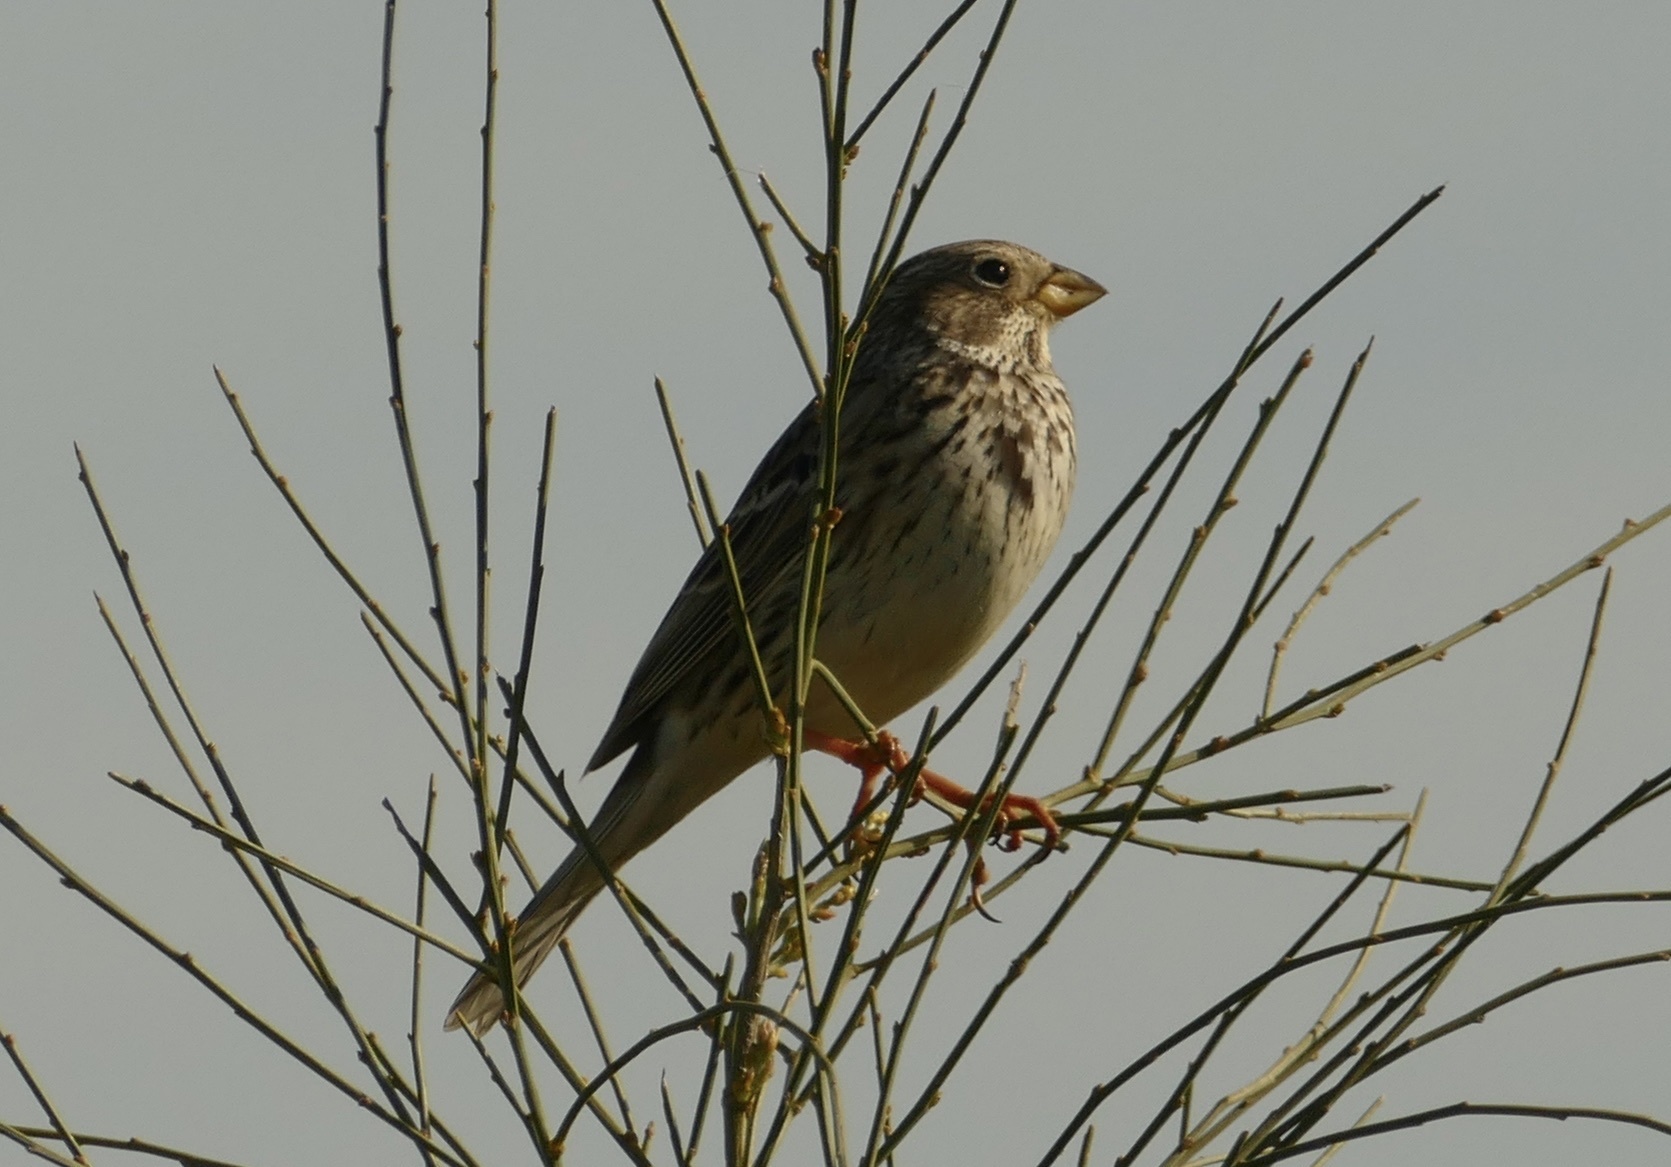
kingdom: Animalia
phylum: Chordata
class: Aves
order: Passeriformes
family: Emberizidae
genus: Emberiza
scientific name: Emberiza calandra
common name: Corn bunting
